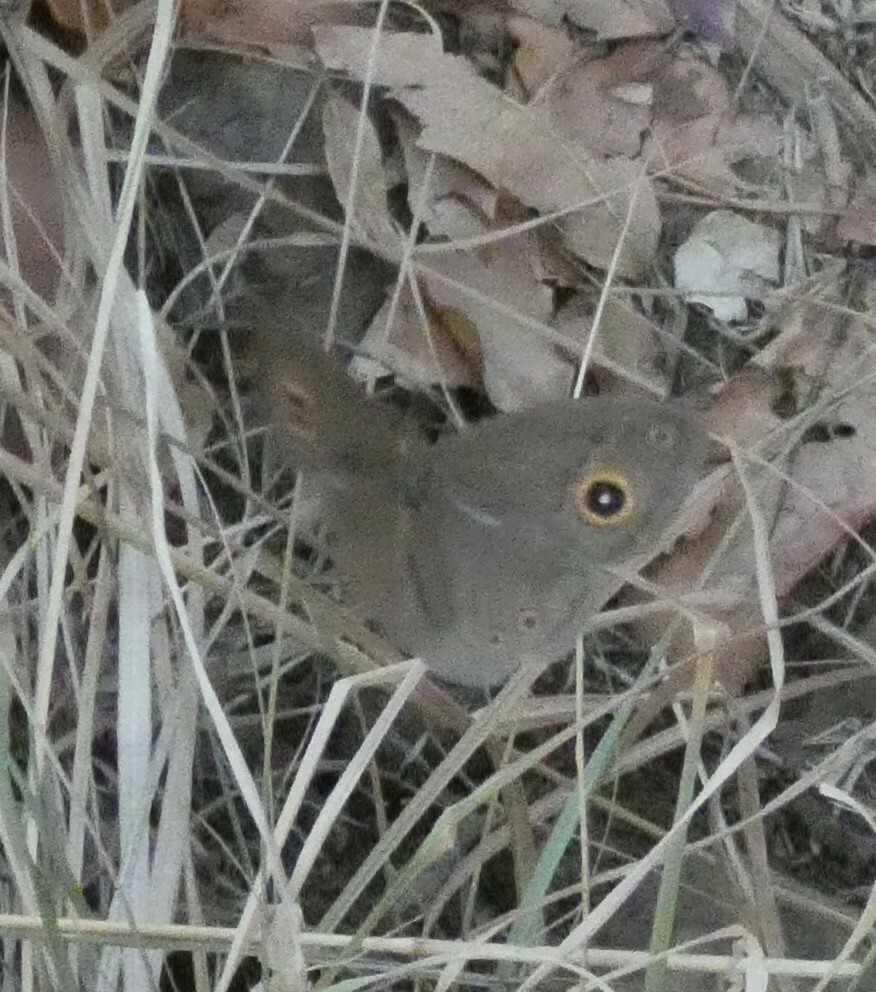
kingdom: Animalia
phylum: Arthropoda
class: Insecta
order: Lepidoptera
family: Nymphalidae
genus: Heteropsis
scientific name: Heteropsis perspicua
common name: Eyed bush brown
